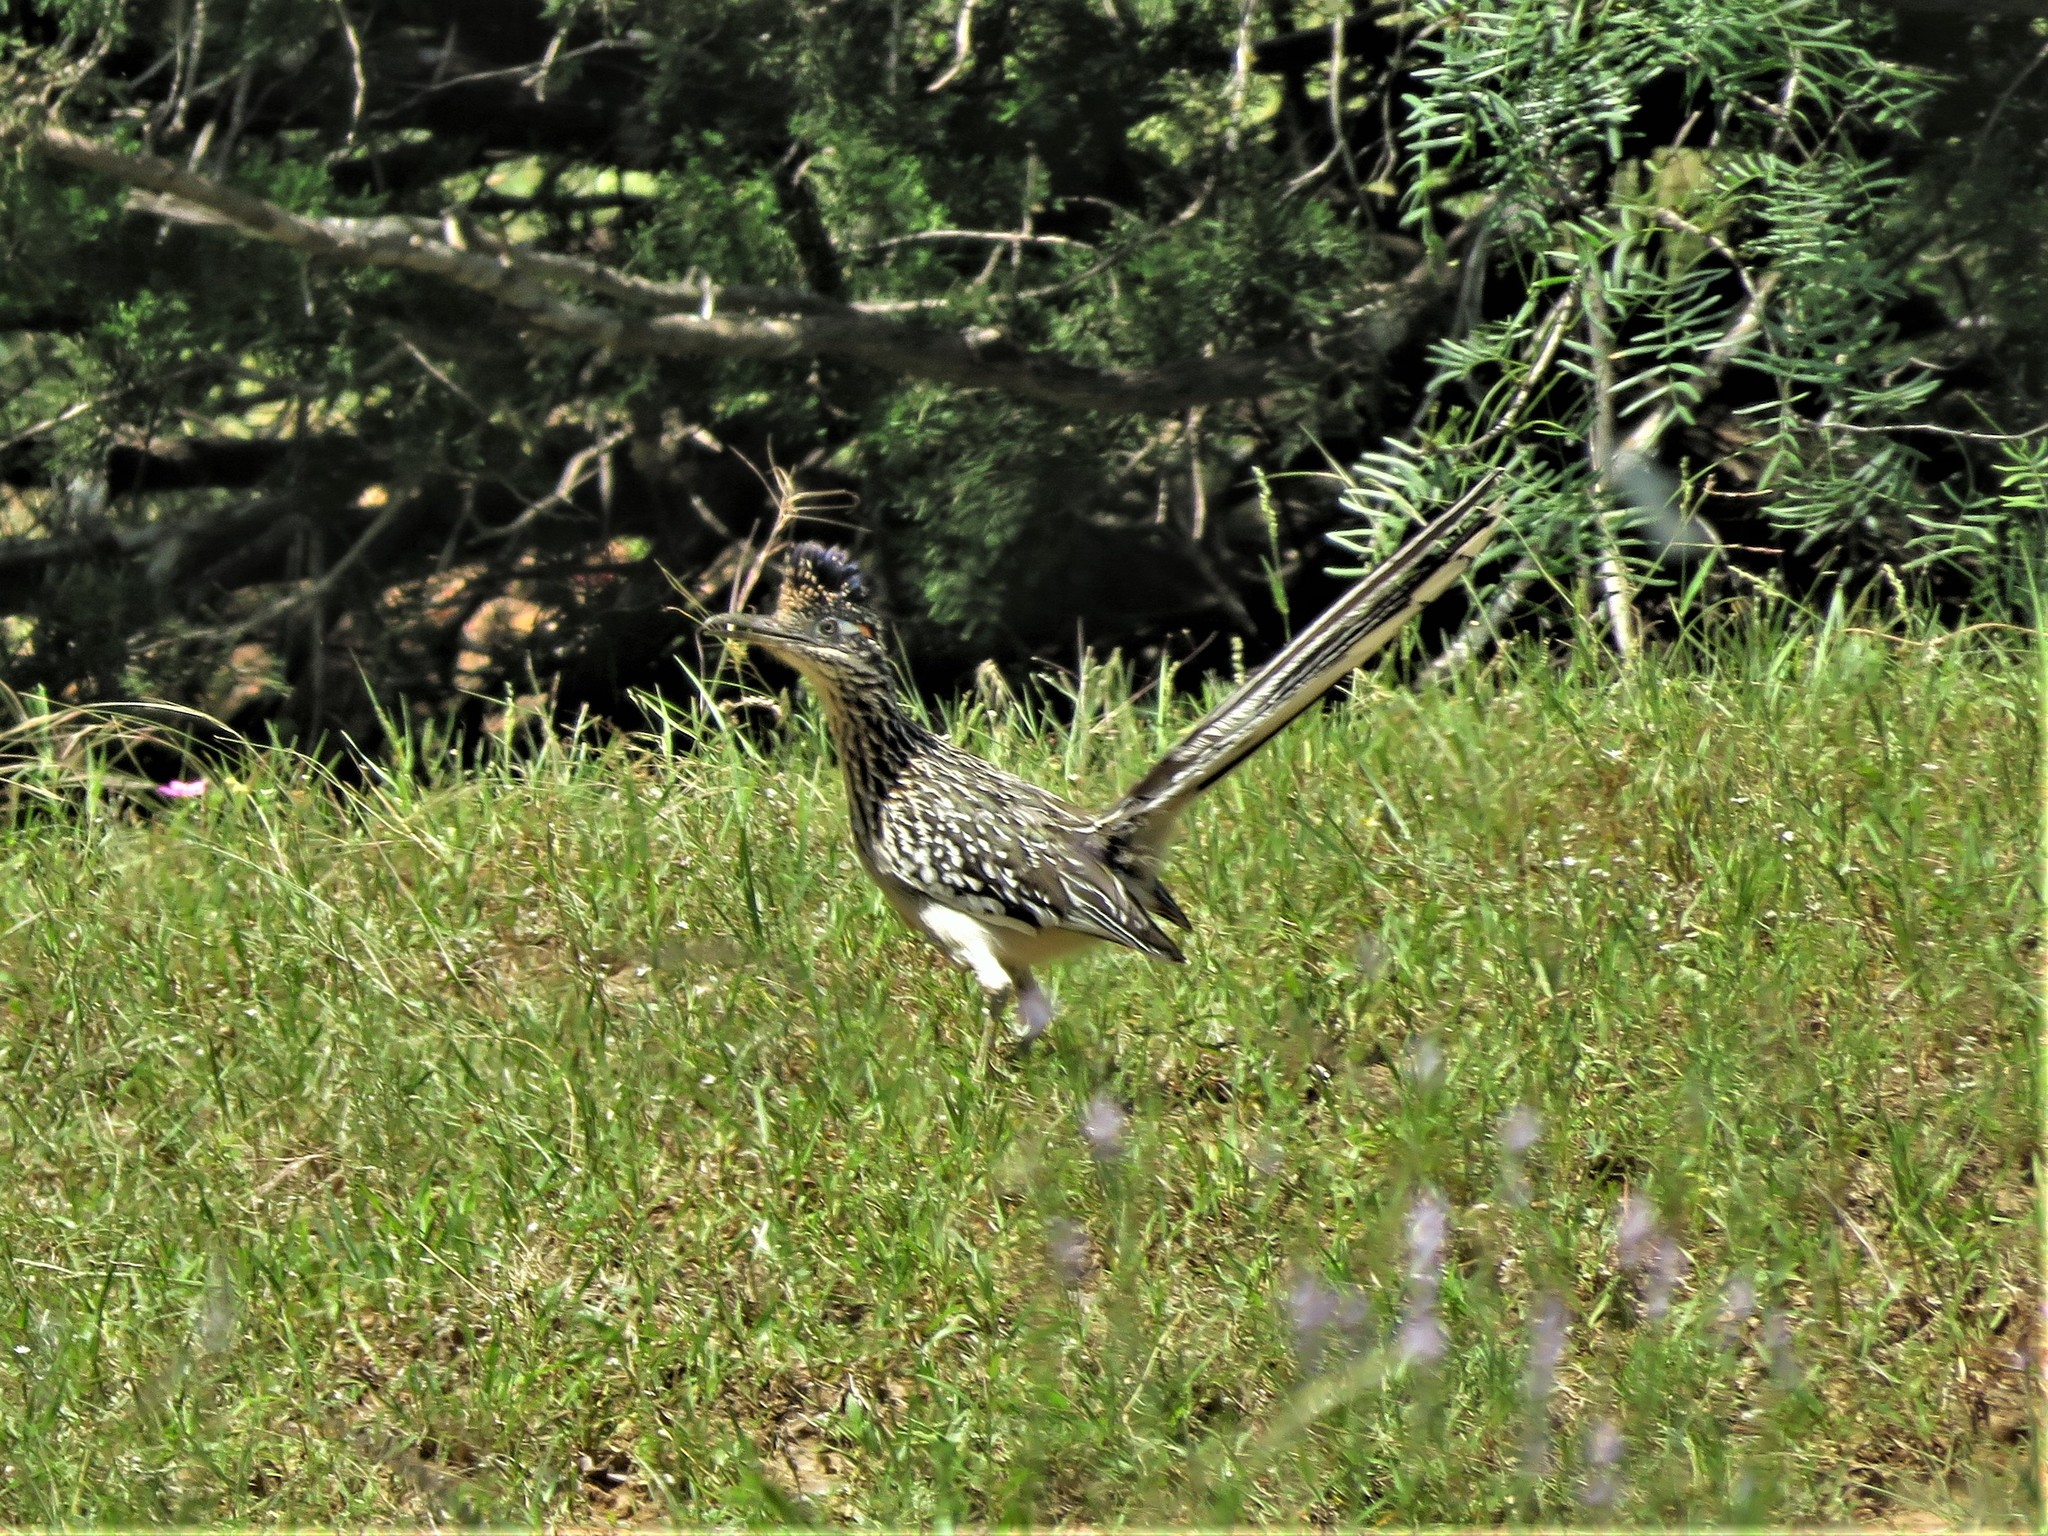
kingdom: Animalia
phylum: Chordata
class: Aves
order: Cuculiformes
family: Cuculidae
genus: Geococcyx
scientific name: Geococcyx californianus
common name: Greater roadrunner
